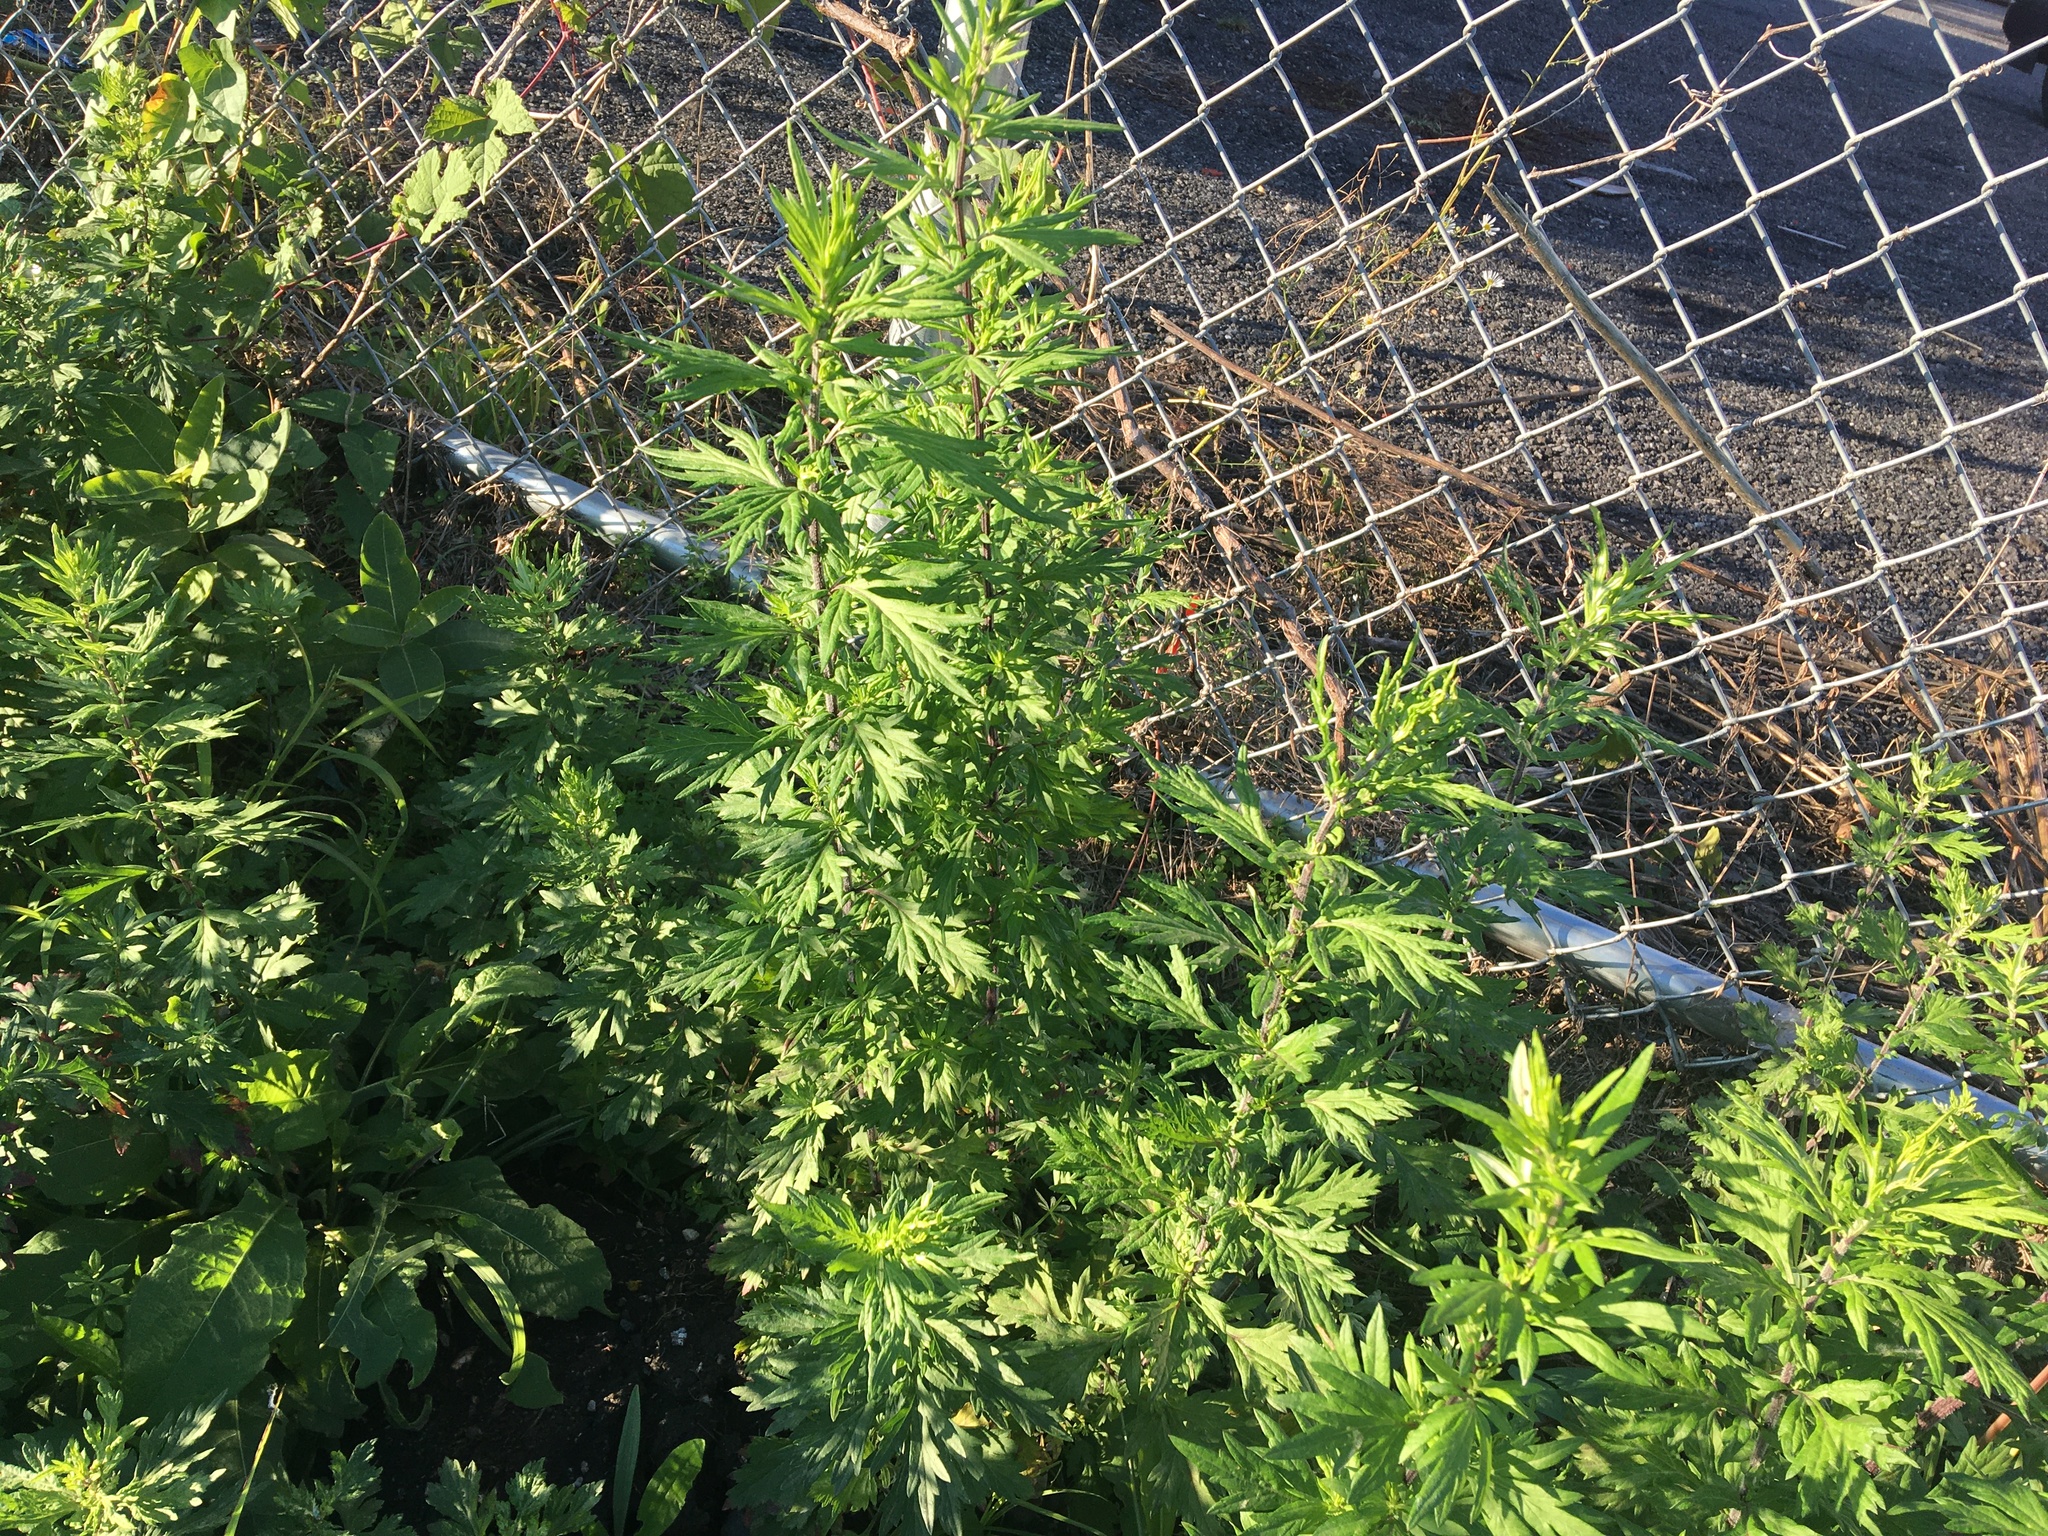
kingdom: Plantae
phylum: Tracheophyta
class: Magnoliopsida
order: Asterales
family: Asteraceae
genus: Artemisia
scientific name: Artemisia vulgaris
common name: Mugwort
